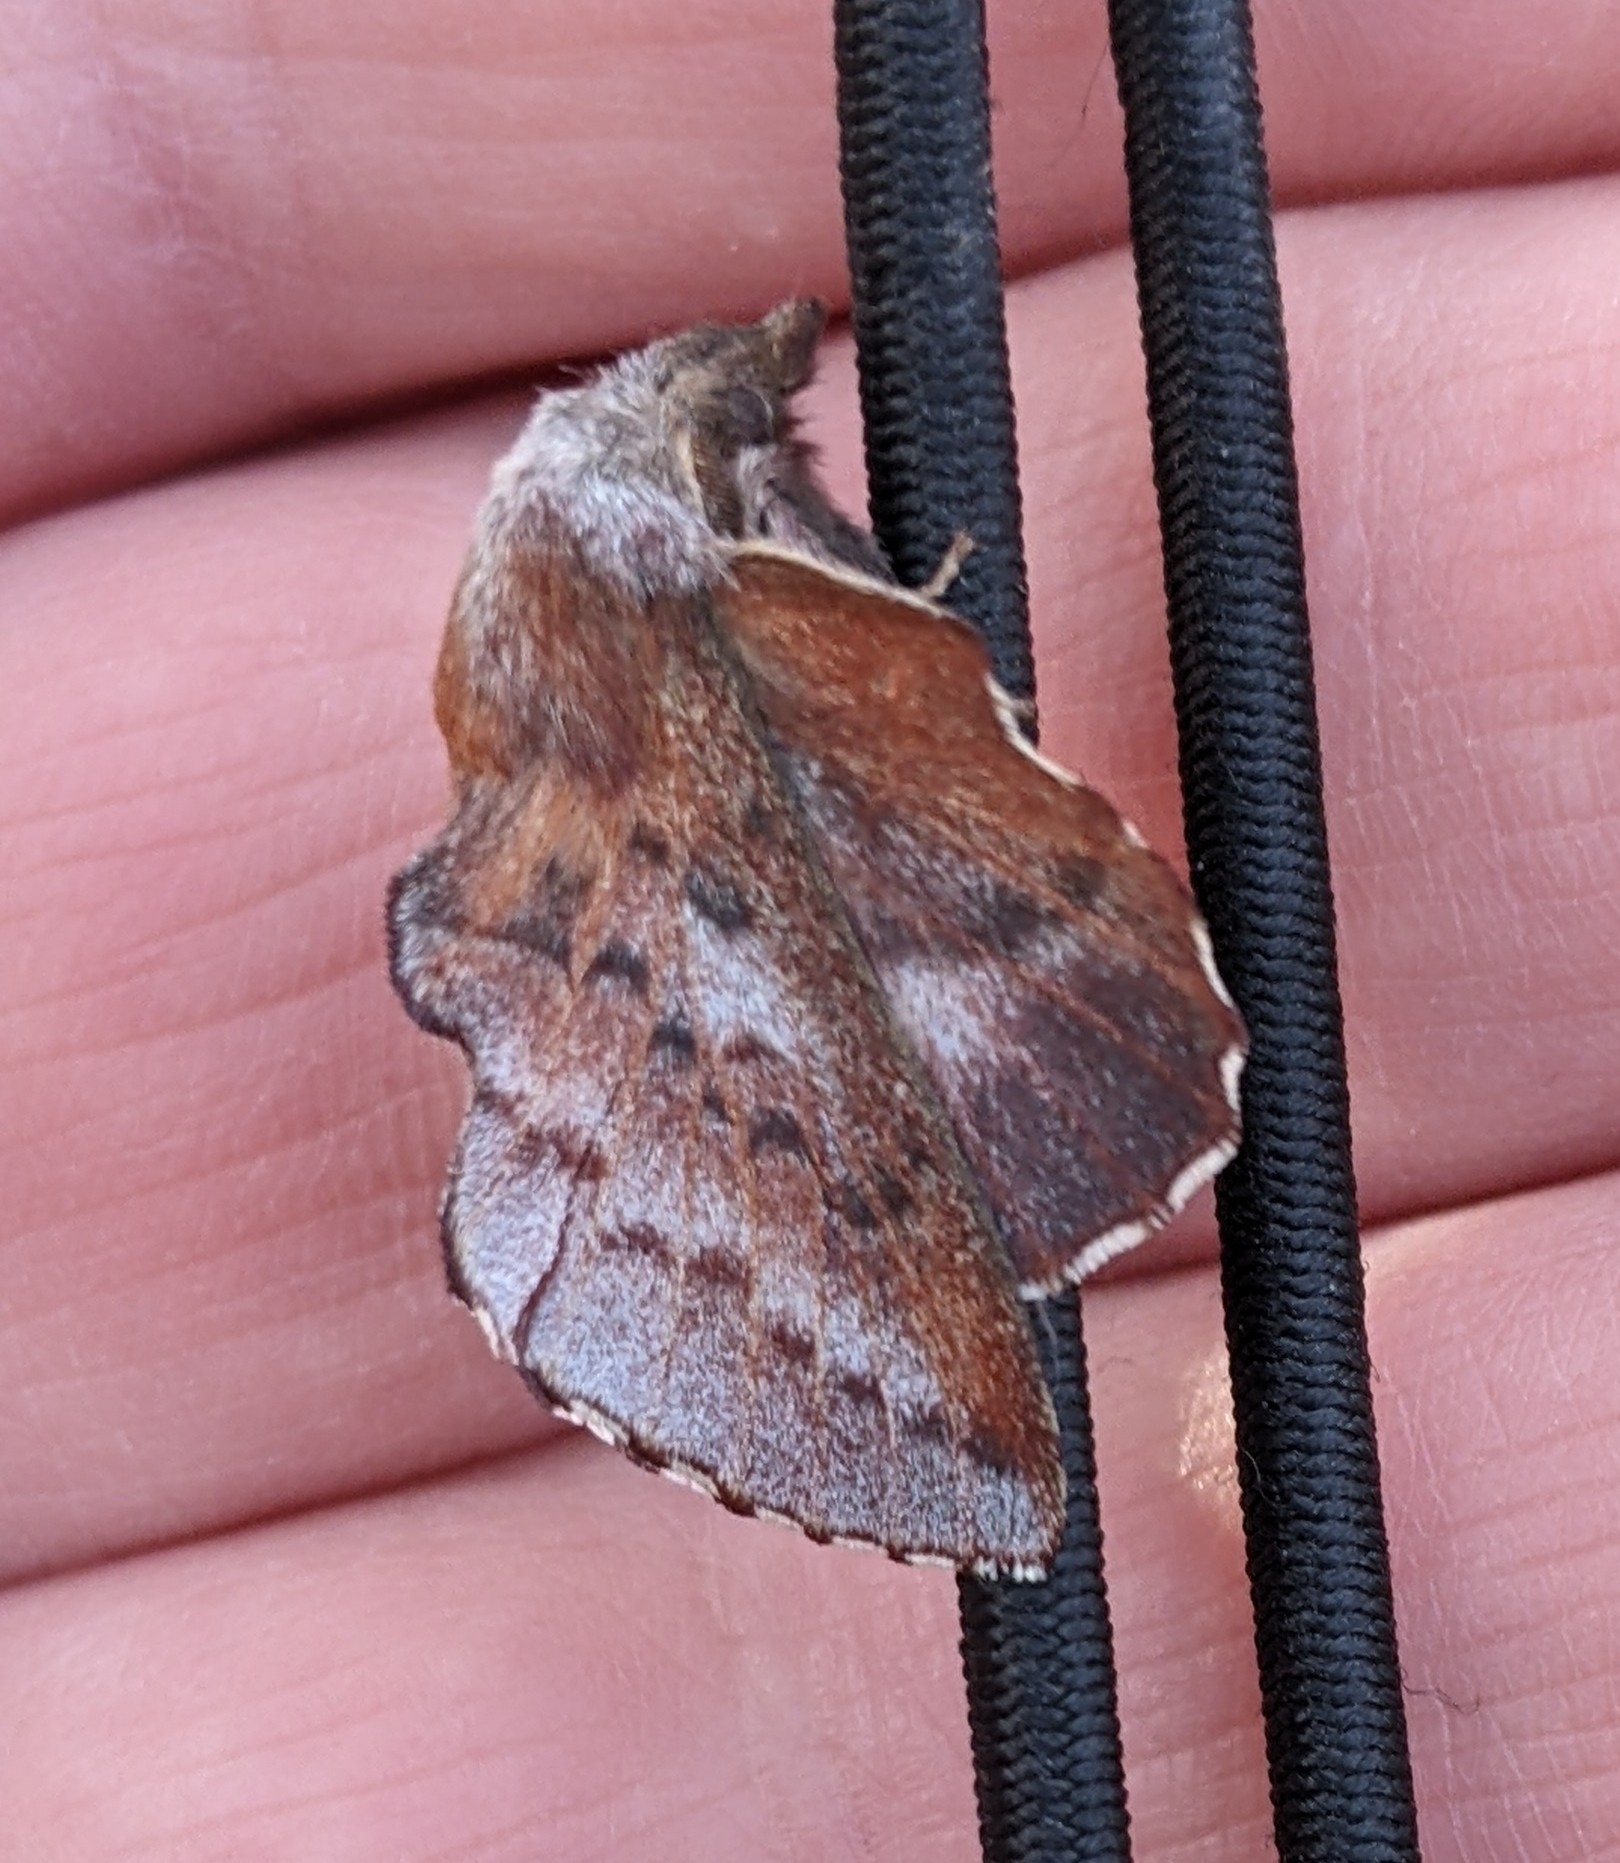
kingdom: Animalia
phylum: Arthropoda
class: Insecta
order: Lepidoptera
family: Lasiocampidae
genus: Phyllodesma
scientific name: Phyllodesma americana
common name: American lappet moth
